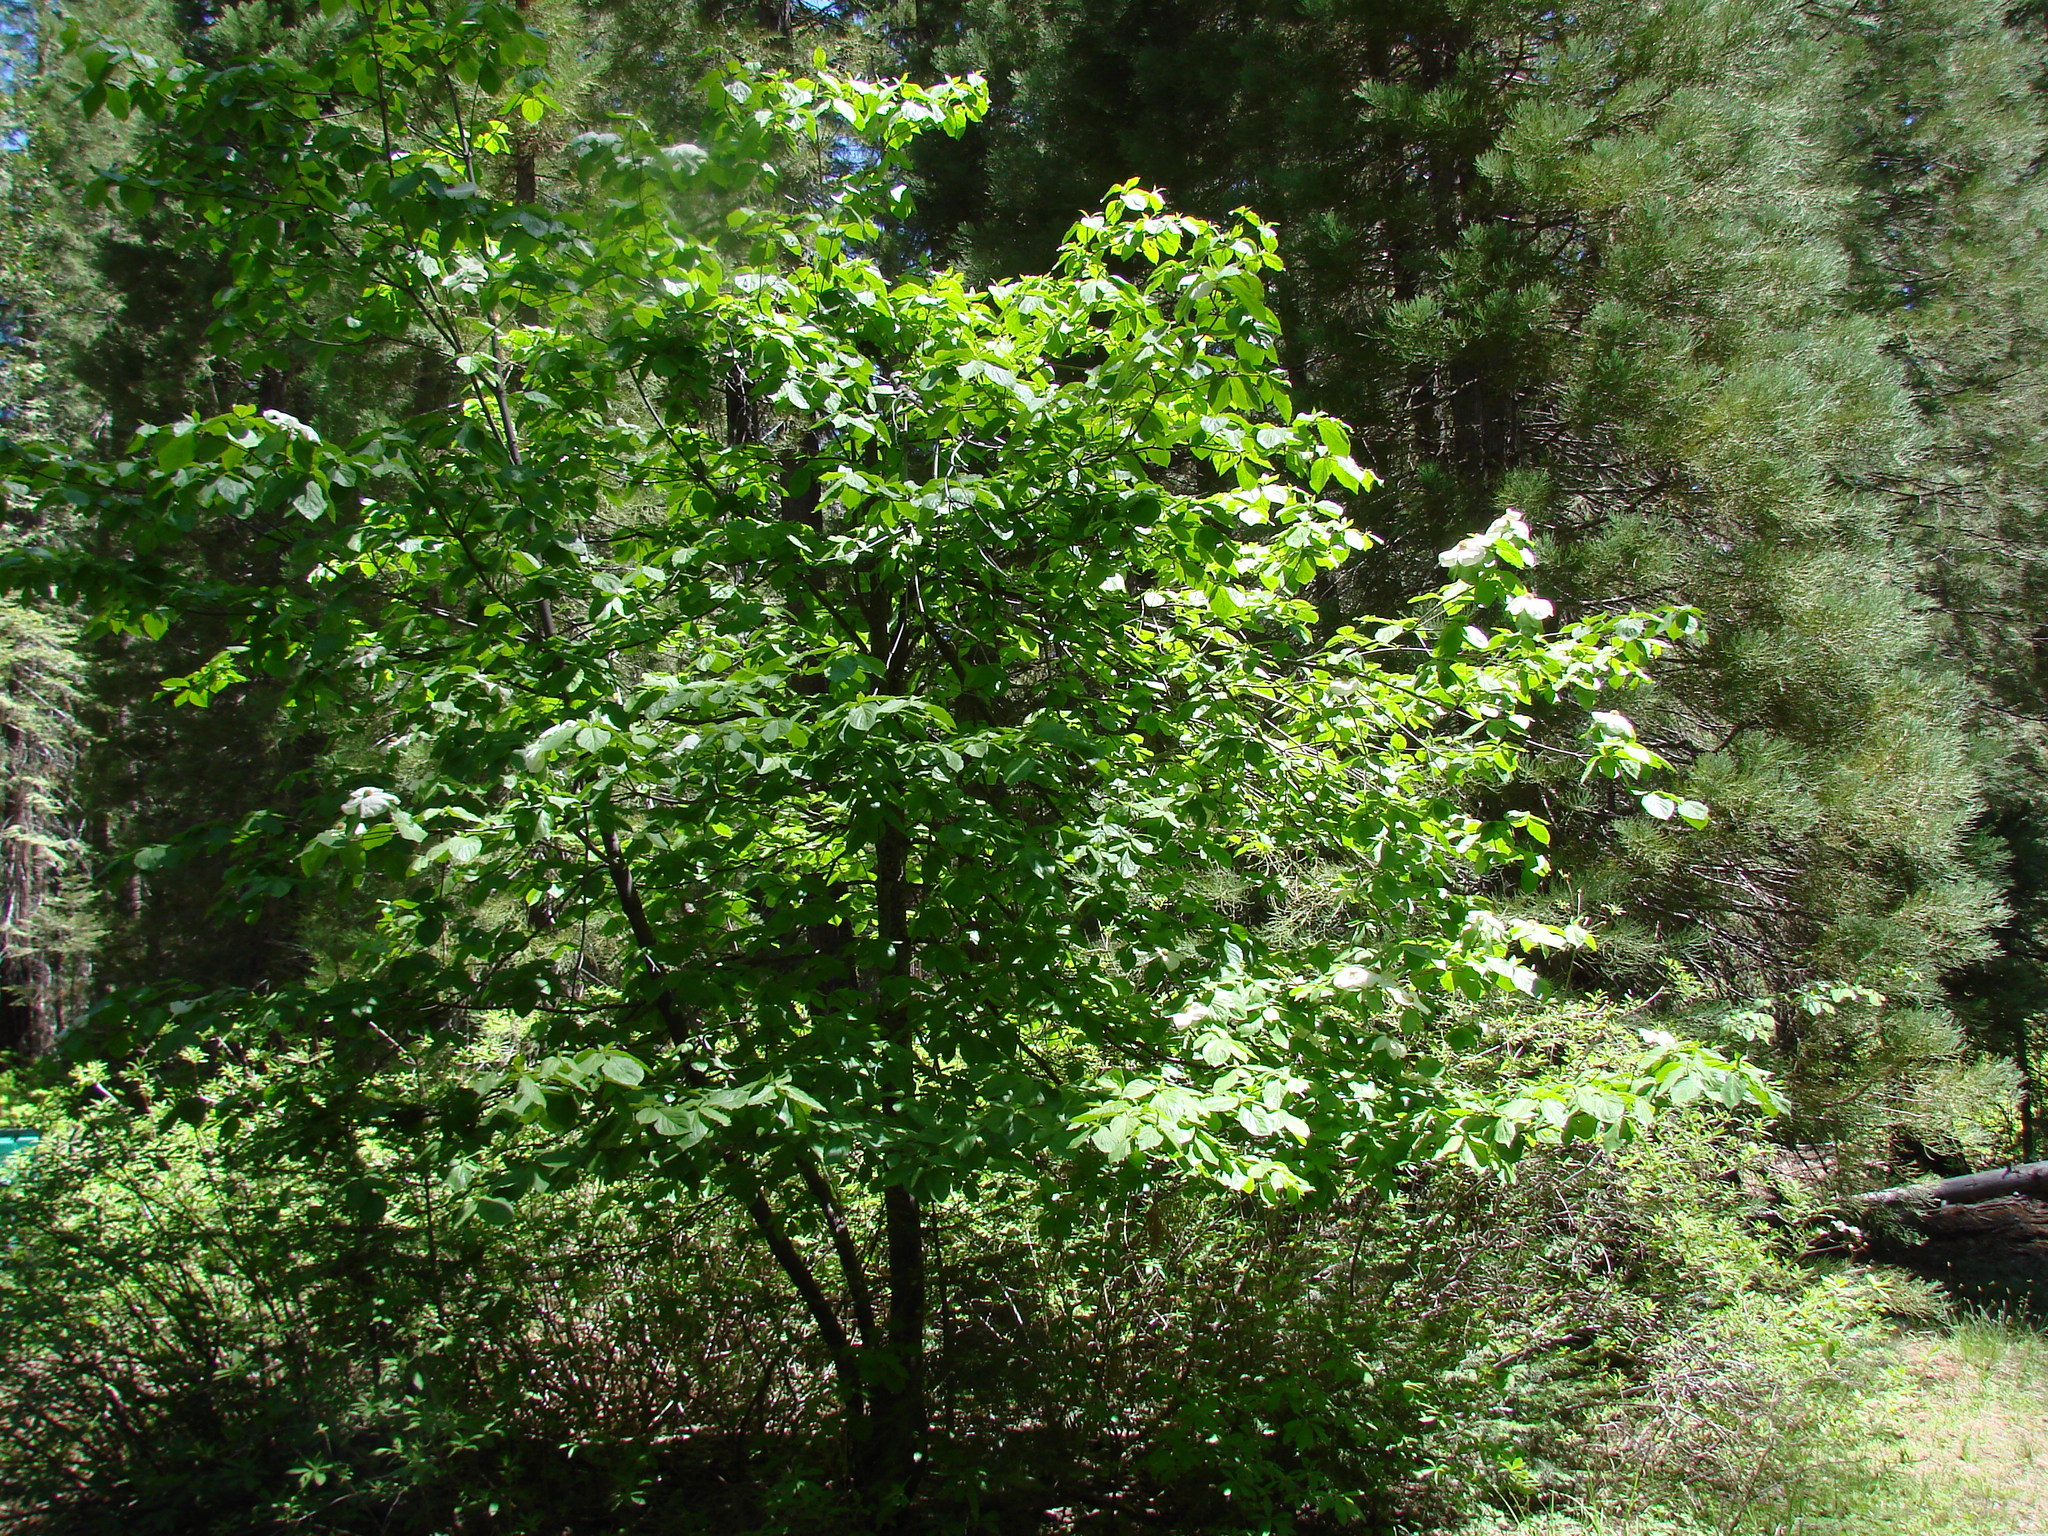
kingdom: Plantae
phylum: Tracheophyta
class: Magnoliopsida
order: Cornales
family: Cornaceae
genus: Cornus
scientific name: Cornus nuttallii
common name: Pacific dogwood
